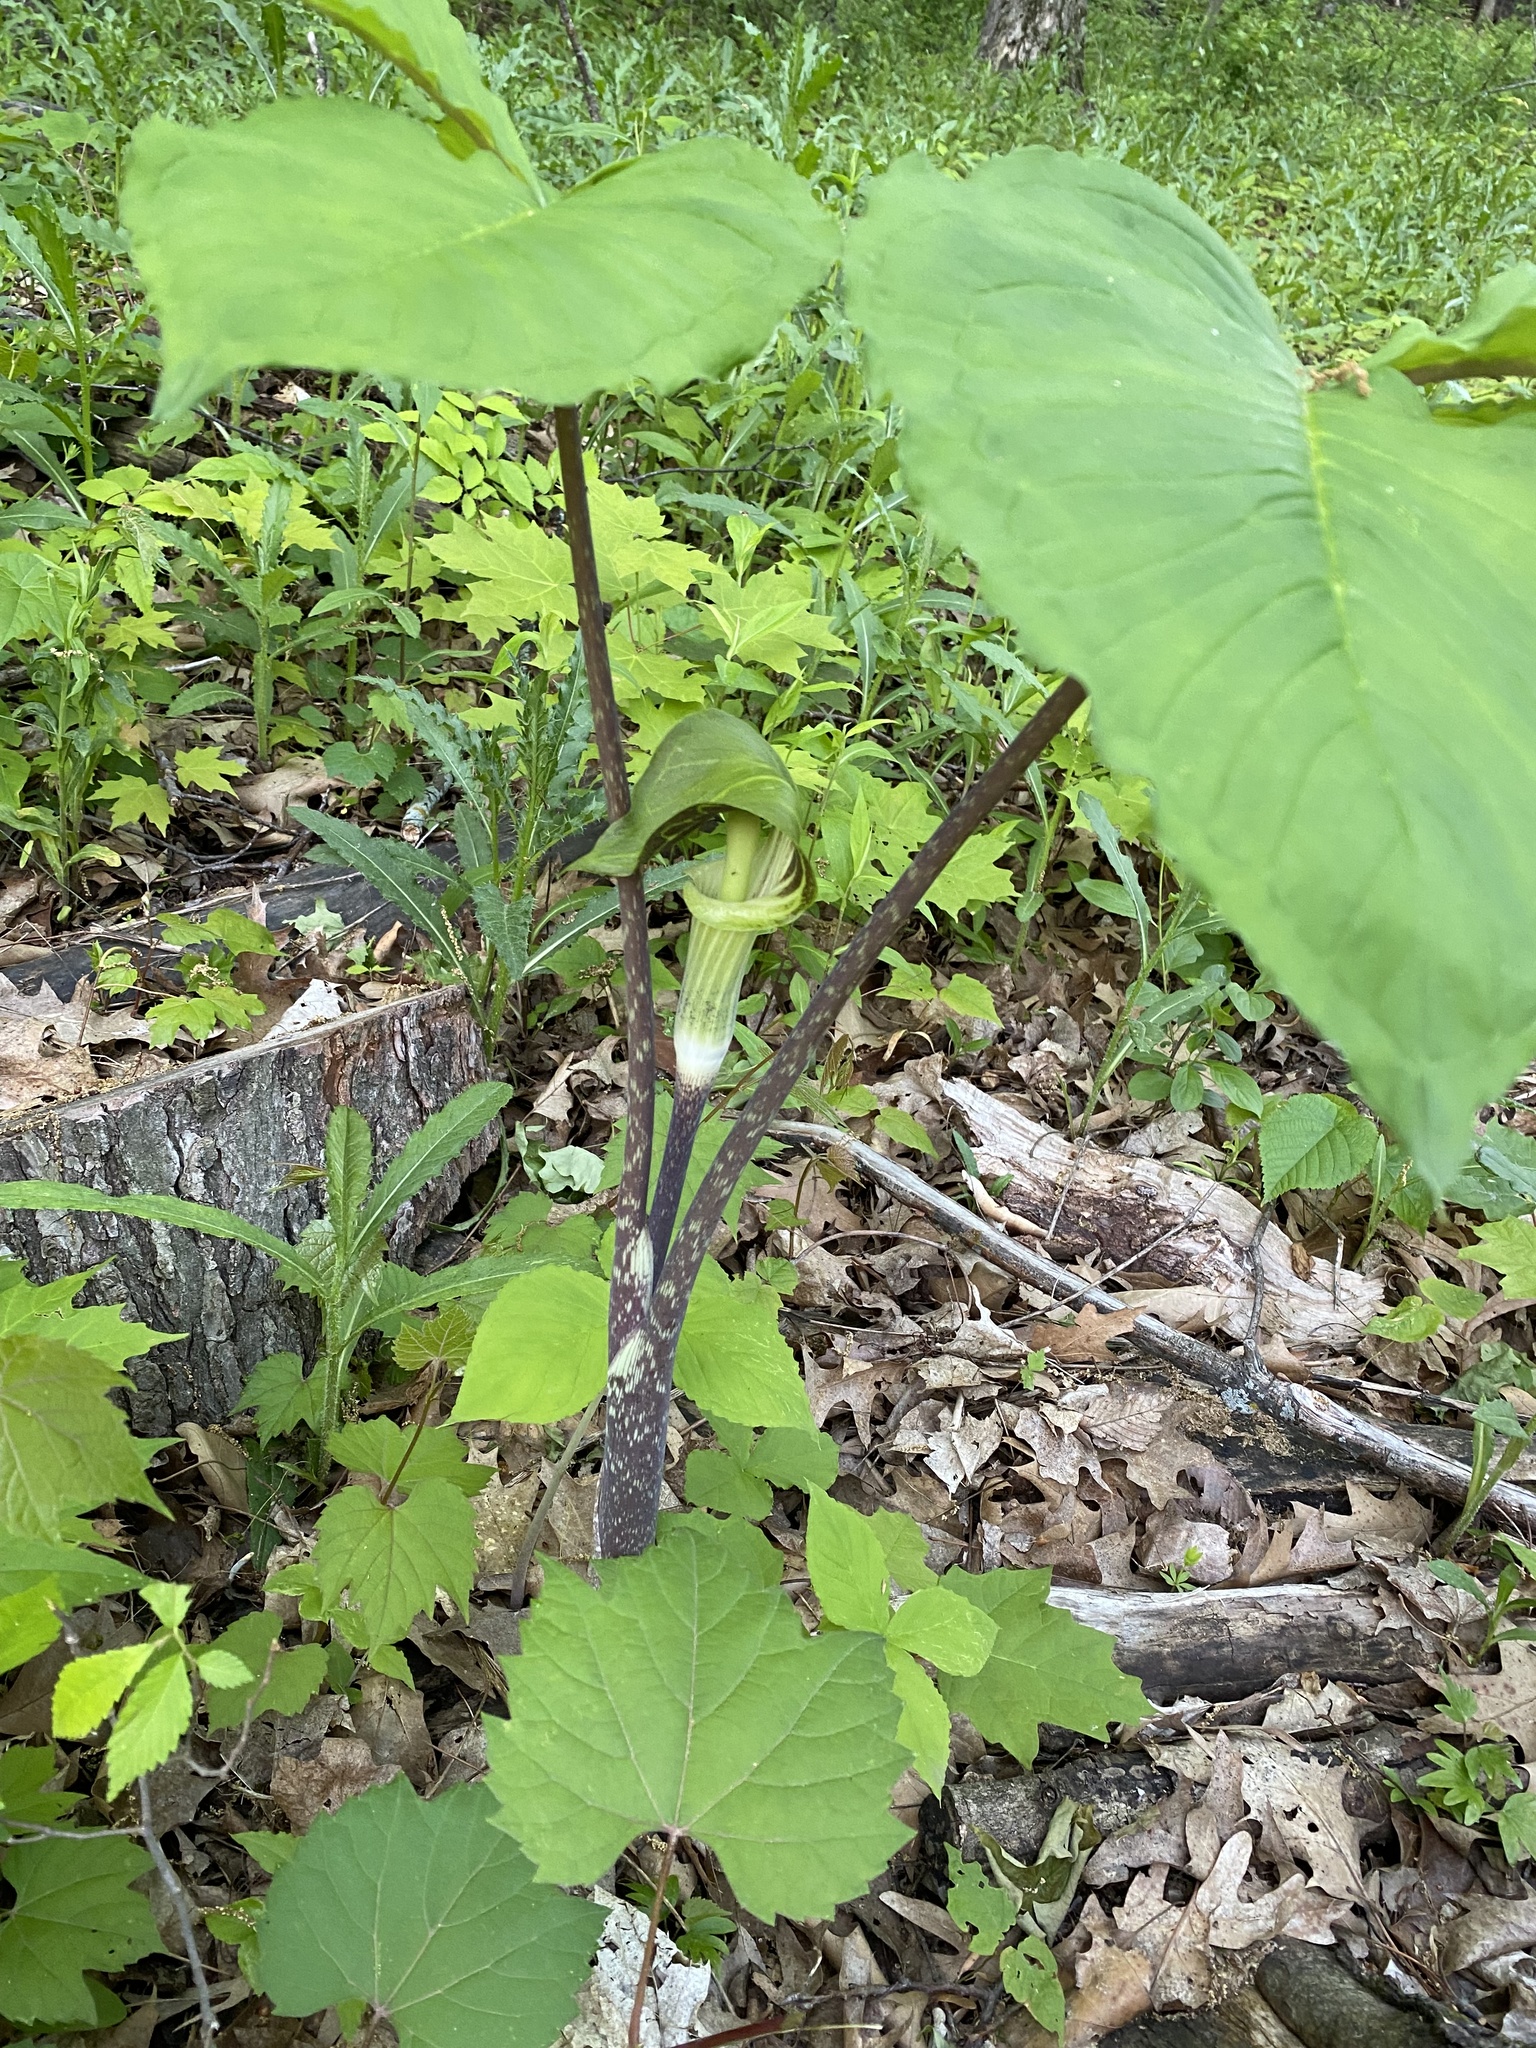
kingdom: Plantae
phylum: Tracheophyta
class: Liliopsida
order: Alismatales
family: Araceae
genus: Arisaema
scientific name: Arisaema triphyllum
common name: Jack-in-the-pulpit
